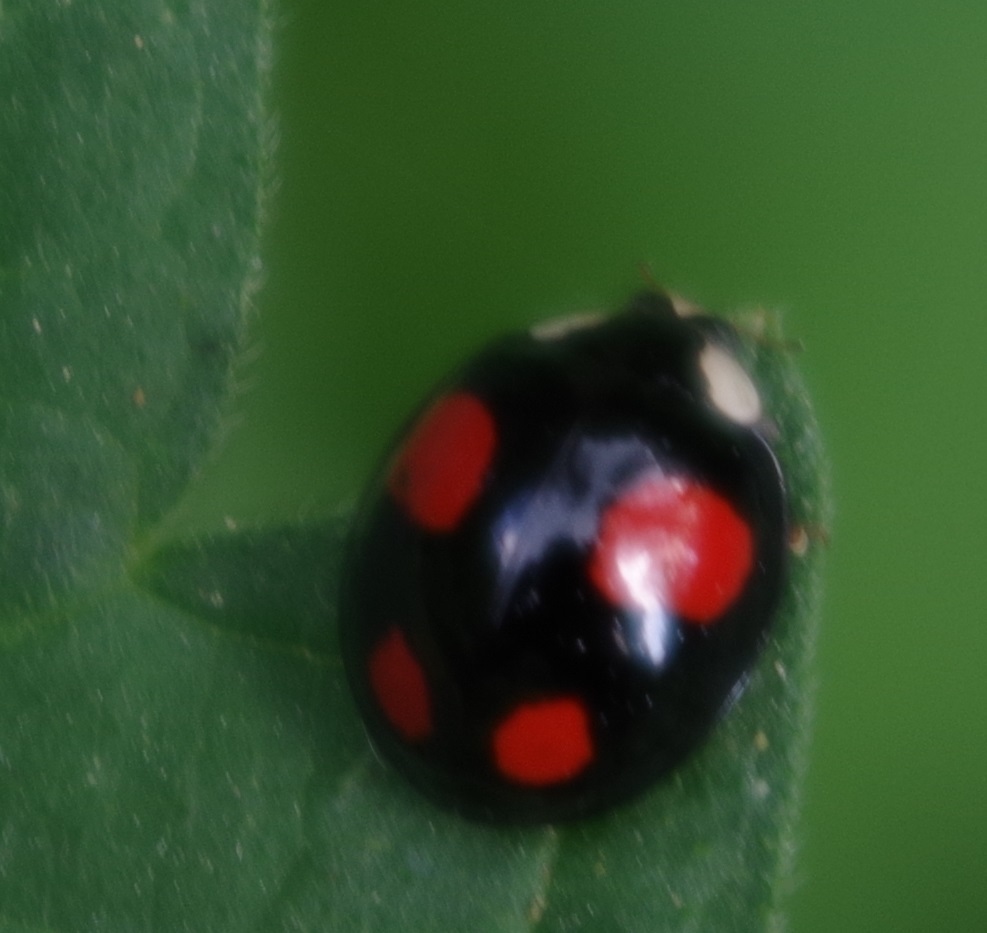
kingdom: Animalia
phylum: Arthropoda
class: Insecta
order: Coleoptera
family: Coccinellidae
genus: Harmonia
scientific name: Harmonia axyridis
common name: Harlequin ladybird
